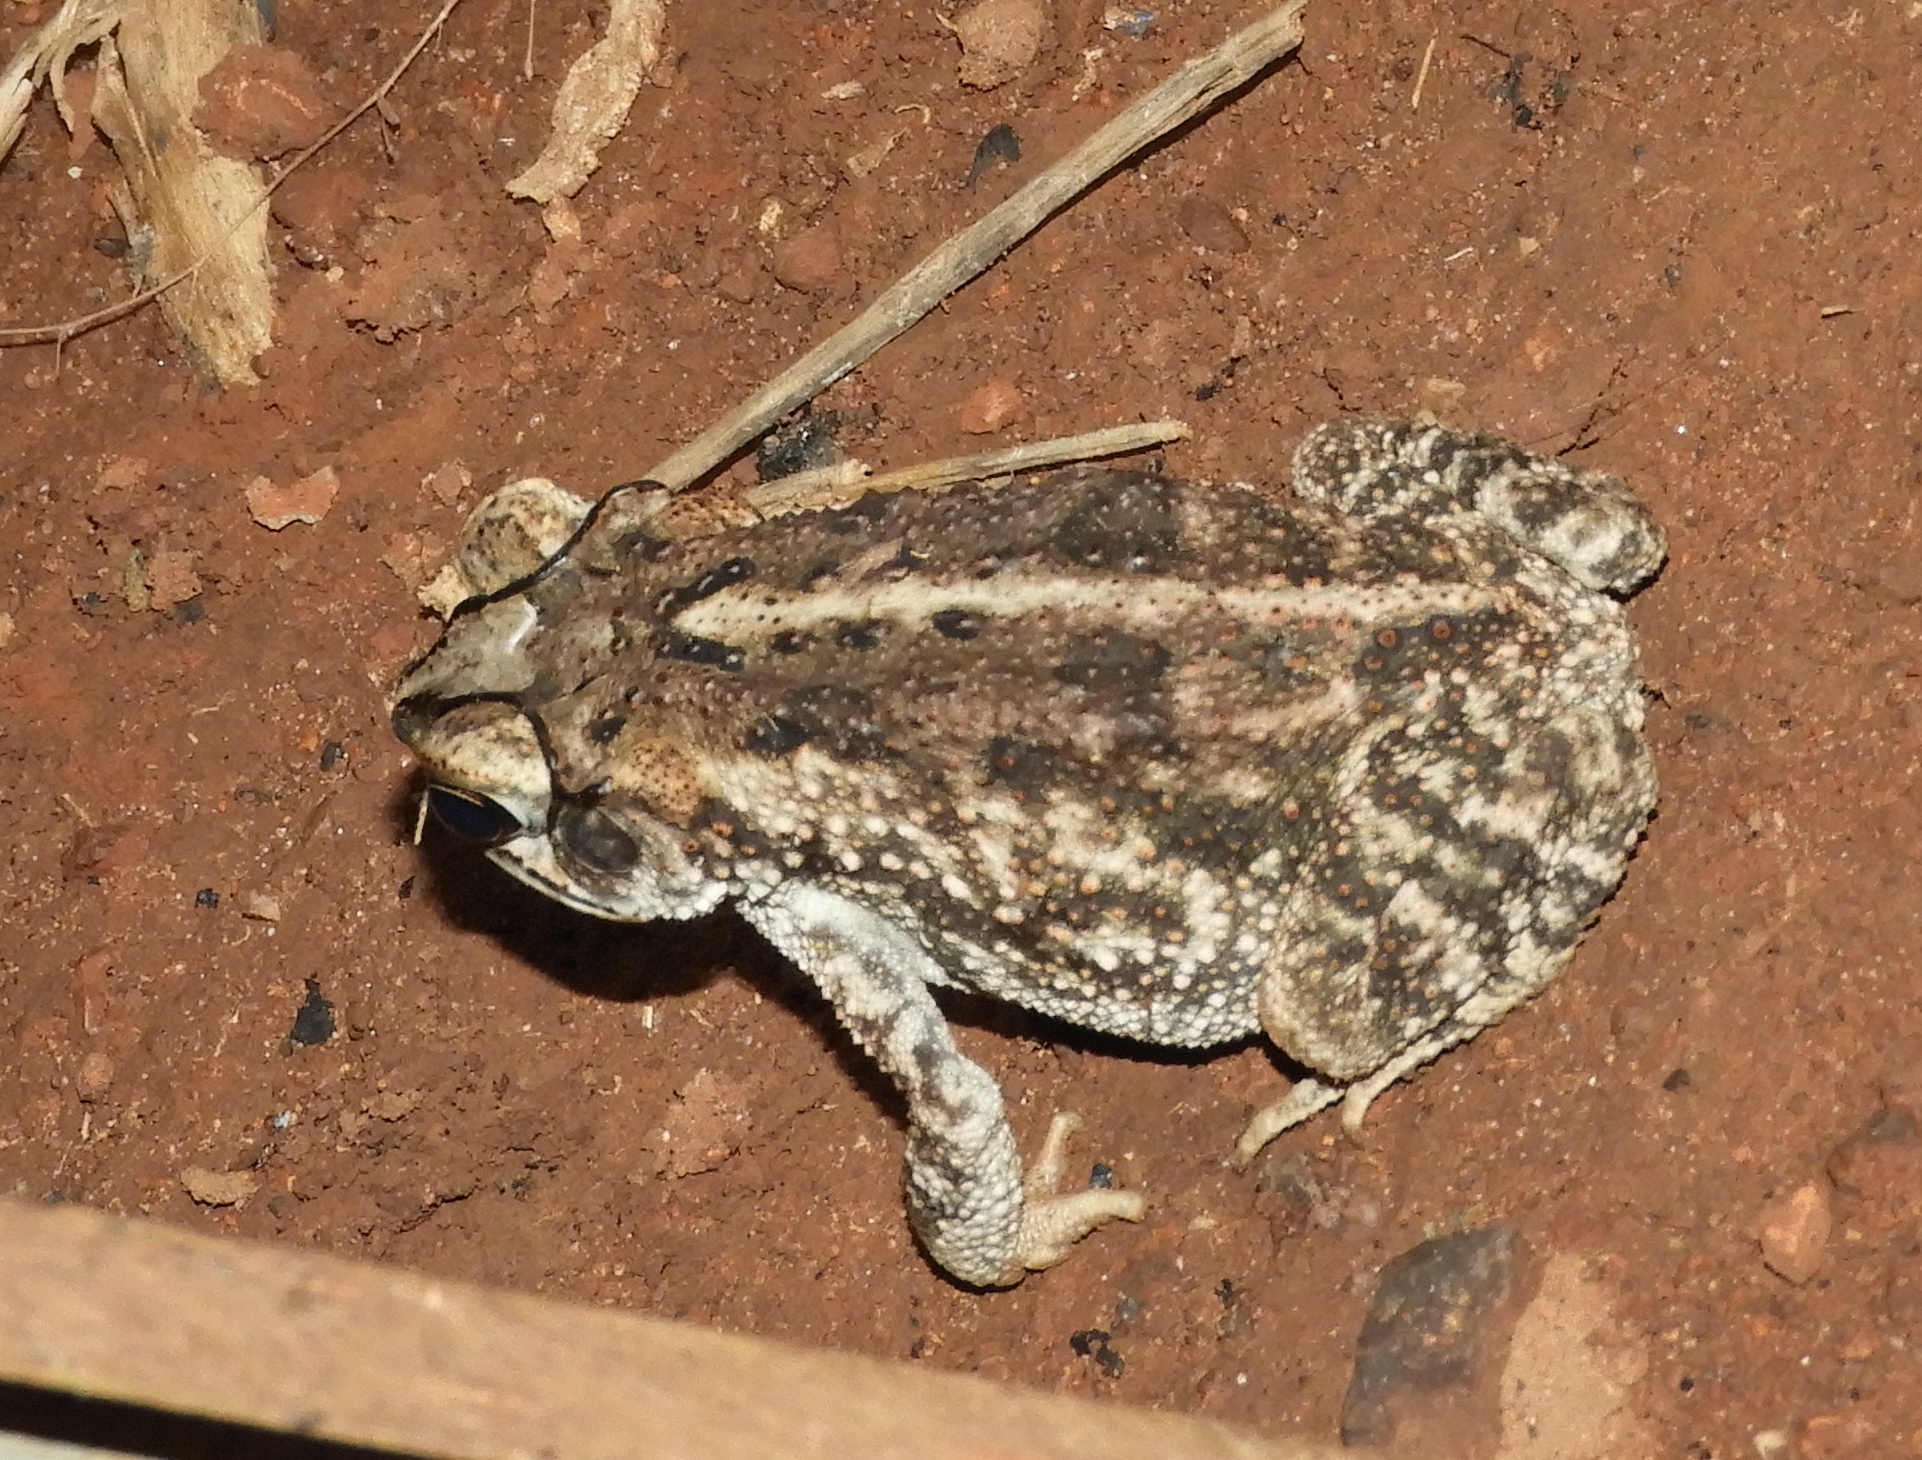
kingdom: Animalia
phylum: Chordata
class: Amphibia
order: Anura
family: Bufonidae
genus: Incilius
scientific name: Incilius mazatlanensis
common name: Sinaloa toad
